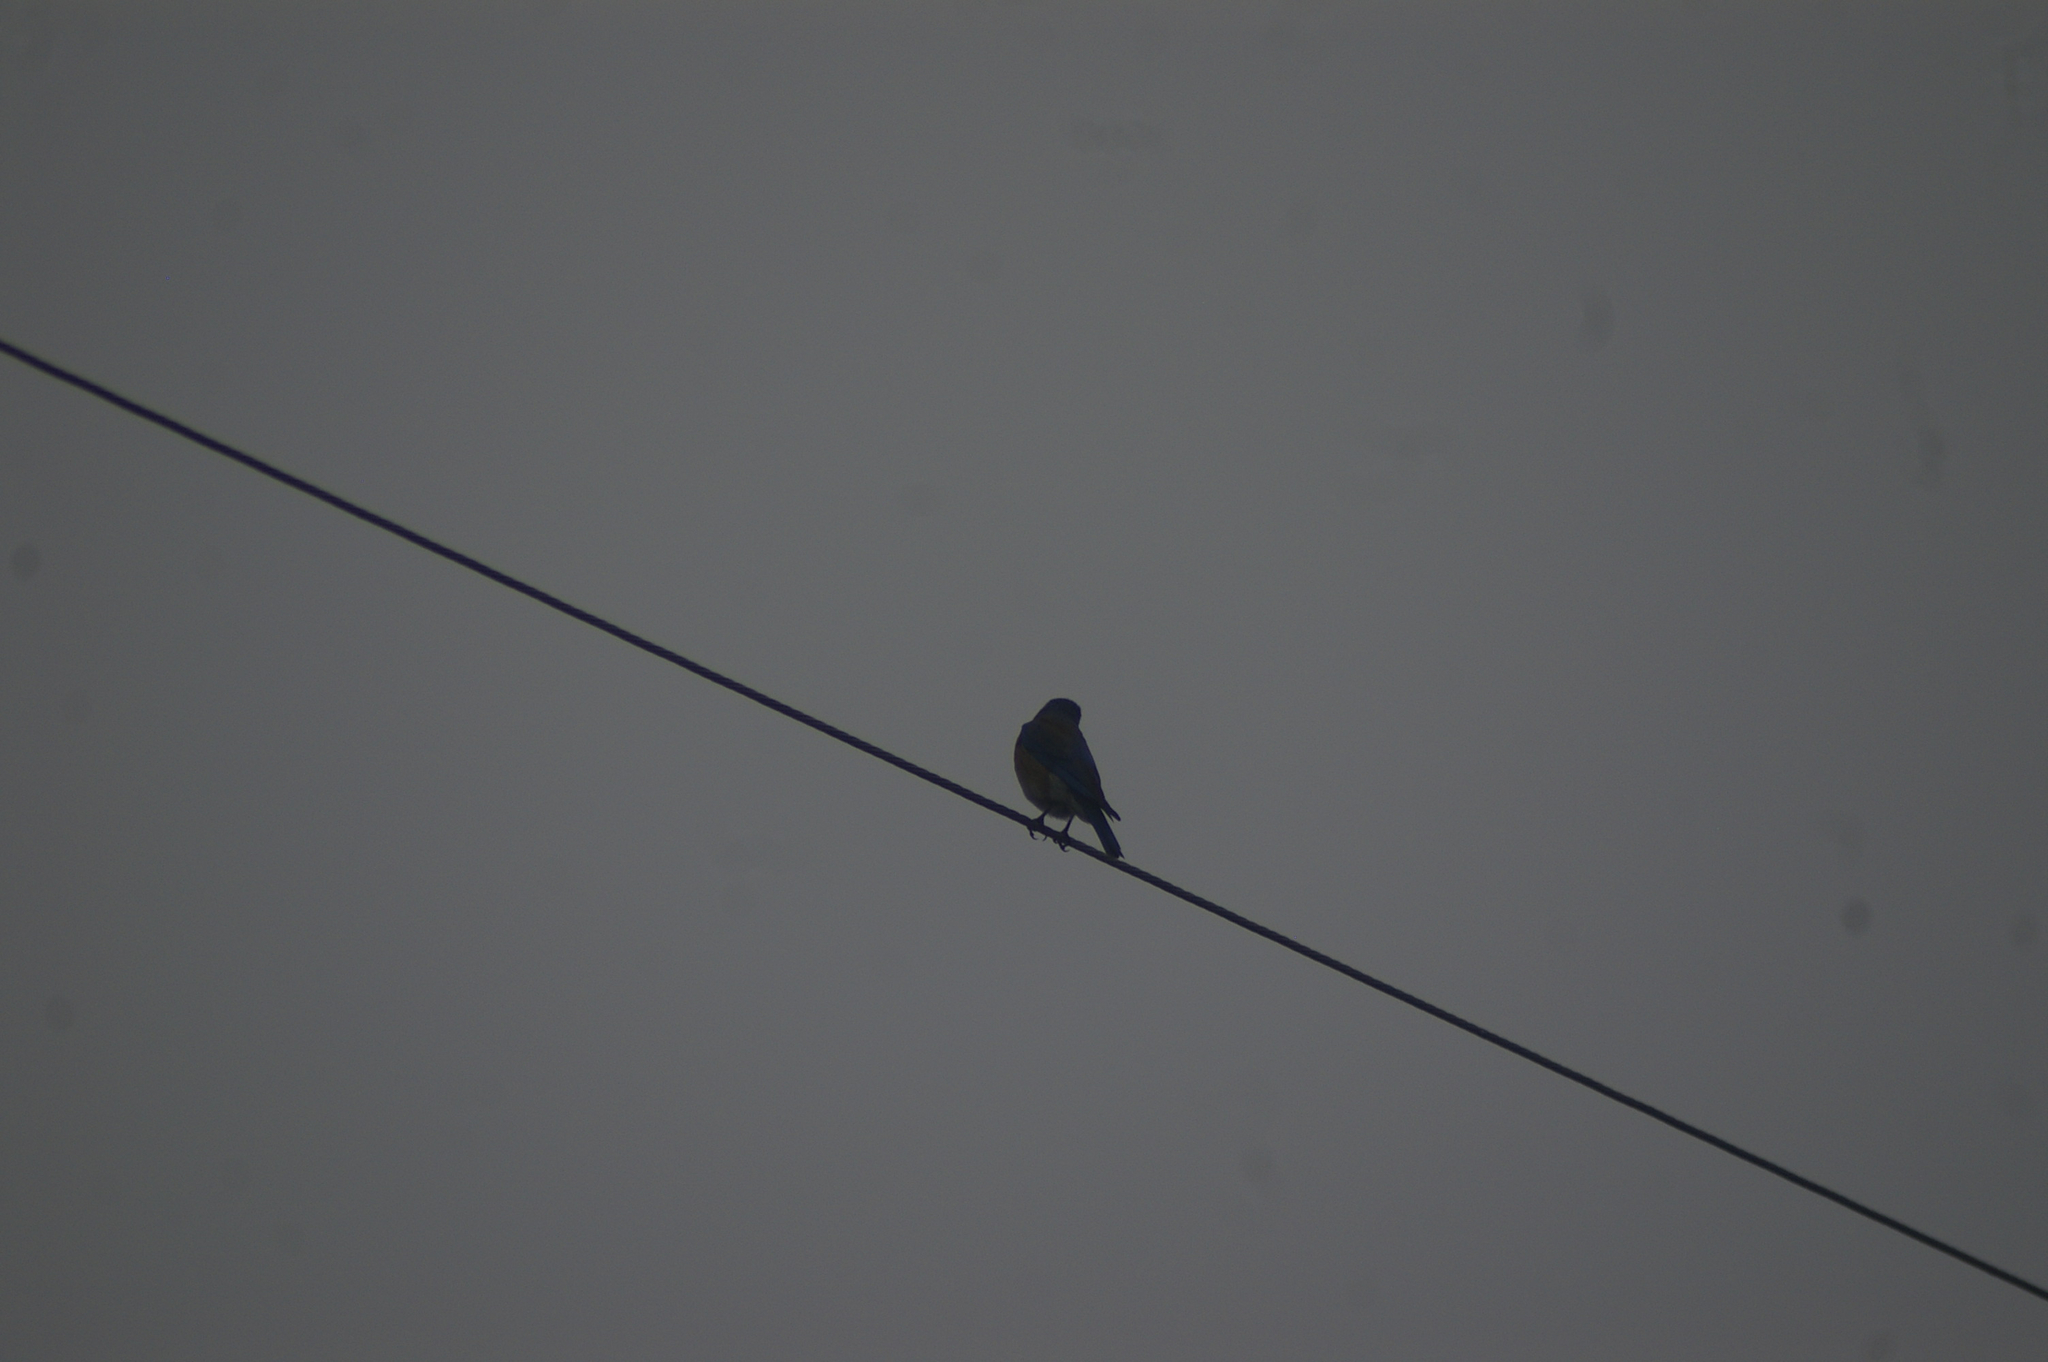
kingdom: Animalia
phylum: Chordata
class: Aves
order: Passeriformes
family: Turdidae
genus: Sialia
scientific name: Sialia mexicana
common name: Western bluebird
